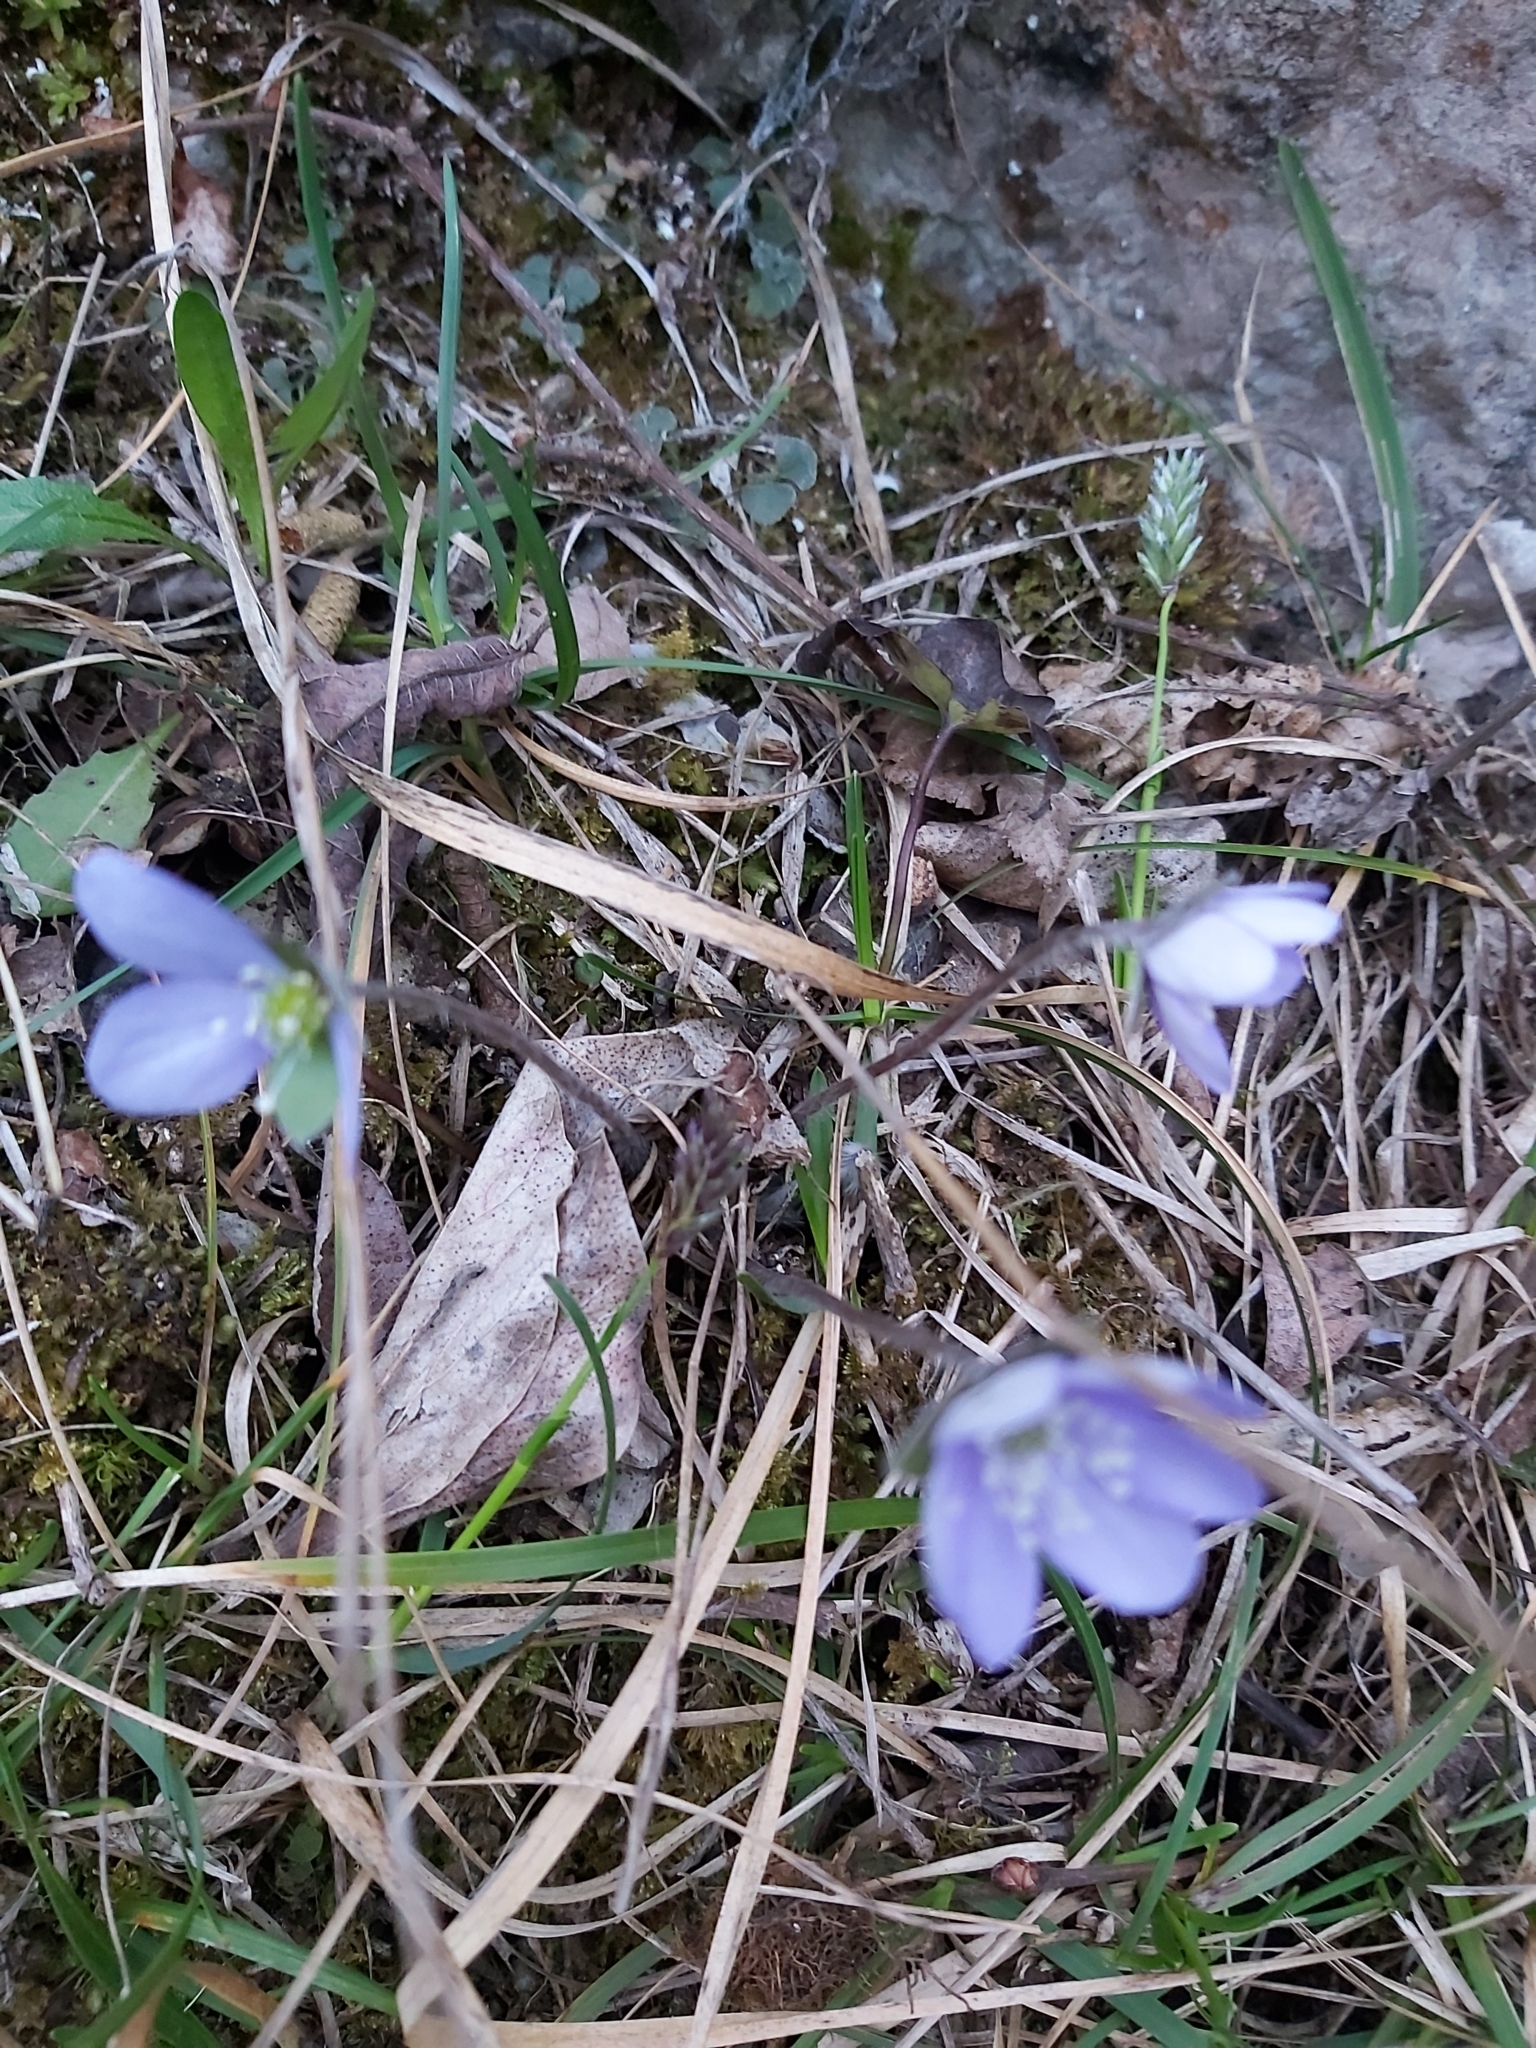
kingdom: Plantae
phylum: Tracheophyta
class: Magnoliopsida
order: Ranunculales
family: Ranunculaceae
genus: Hepatica
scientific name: Hepatica nobilis
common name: Liverleaf
